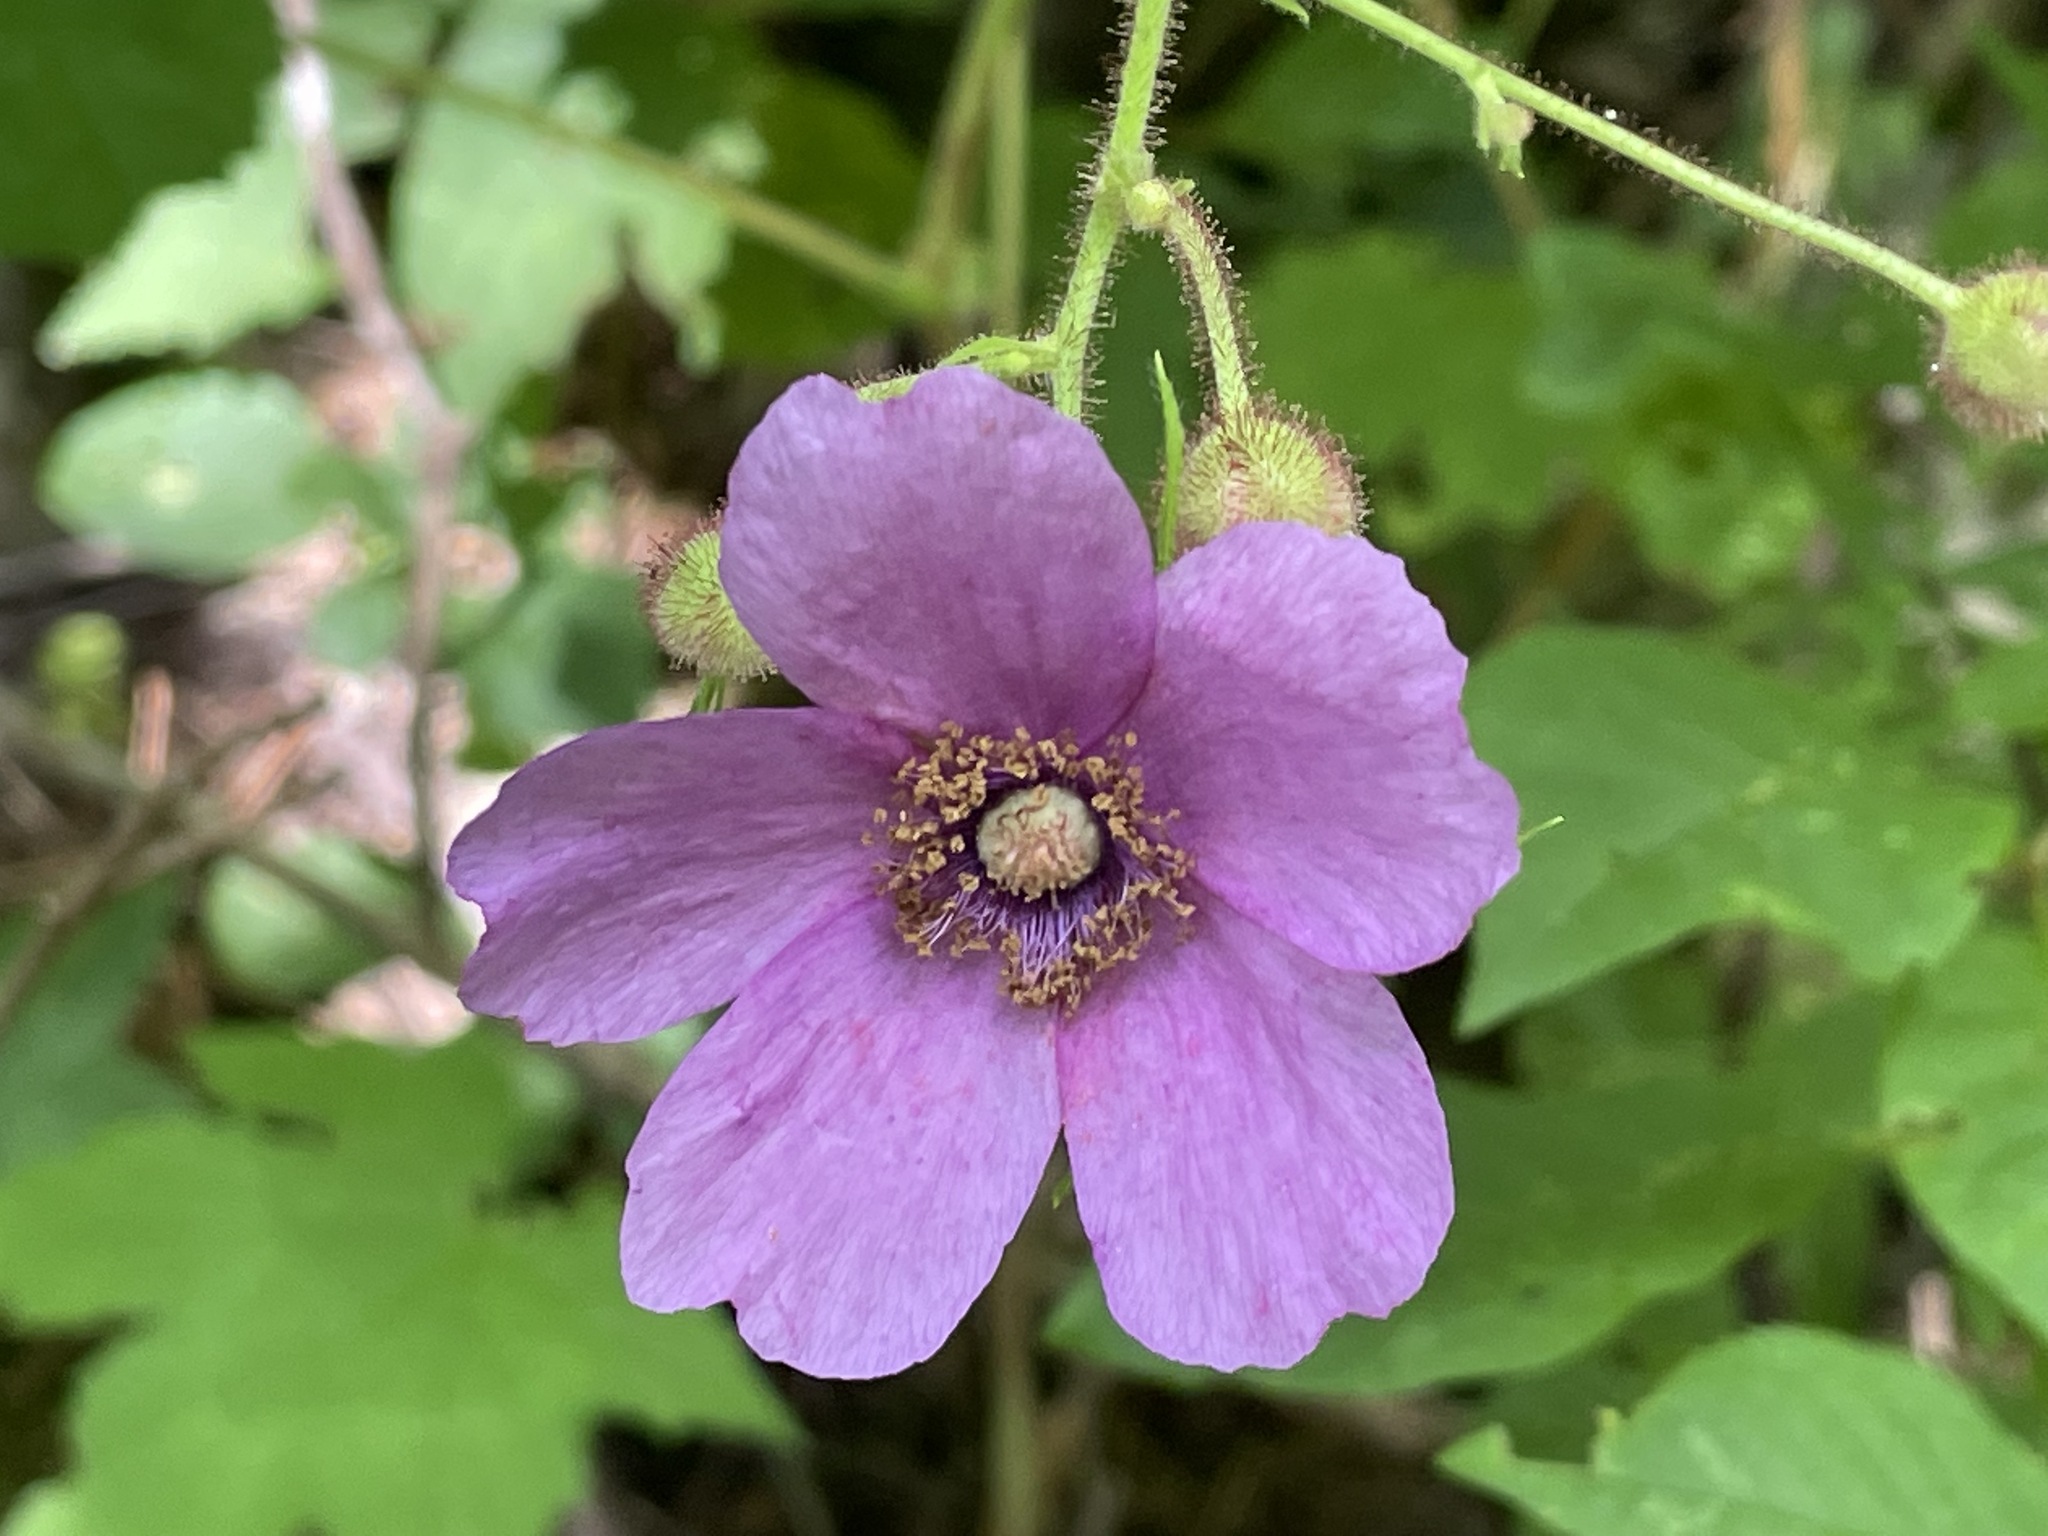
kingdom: Plantae
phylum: Tracheophyta
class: Magnoliopsida
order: Rosales
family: Rosaceae
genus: Rubus
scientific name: Rubus odoratus
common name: Purple-flowered raspberry
